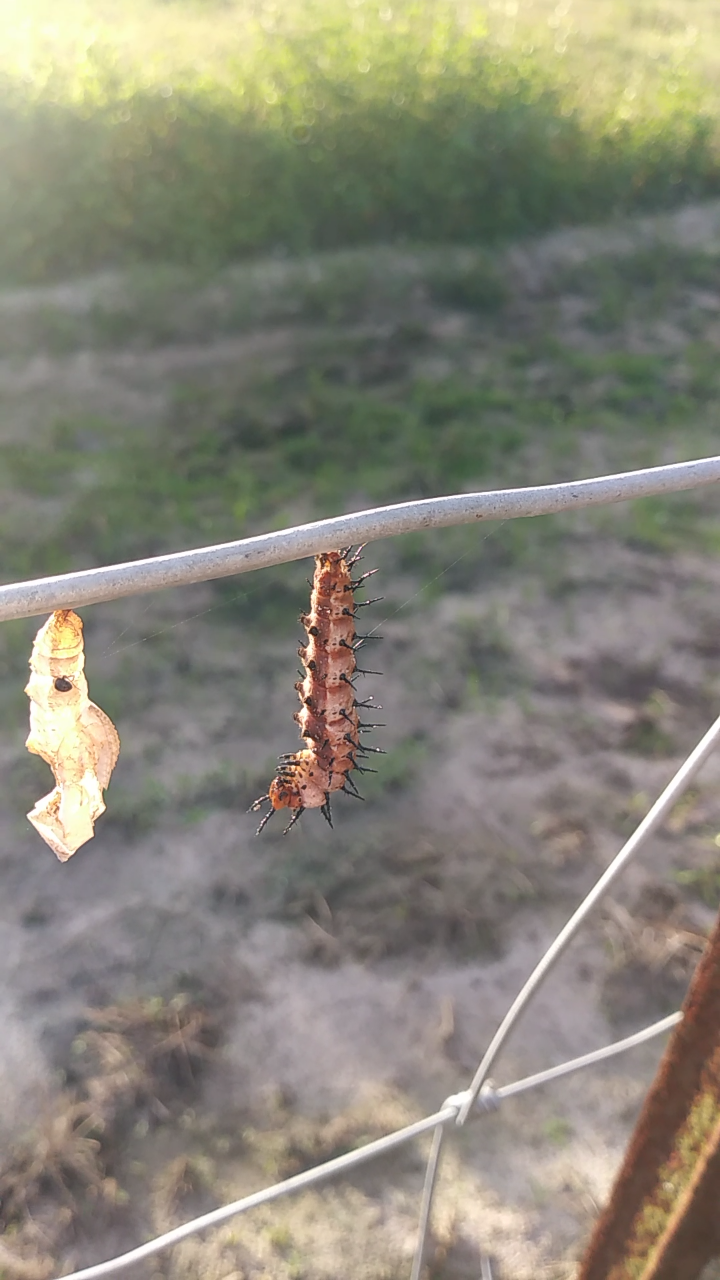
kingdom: Animalia
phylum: Arthropoda
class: Insecta
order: Lepidoptera
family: Nymphalidae
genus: Dione
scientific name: Dione vanillae
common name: Gulf fritillary
